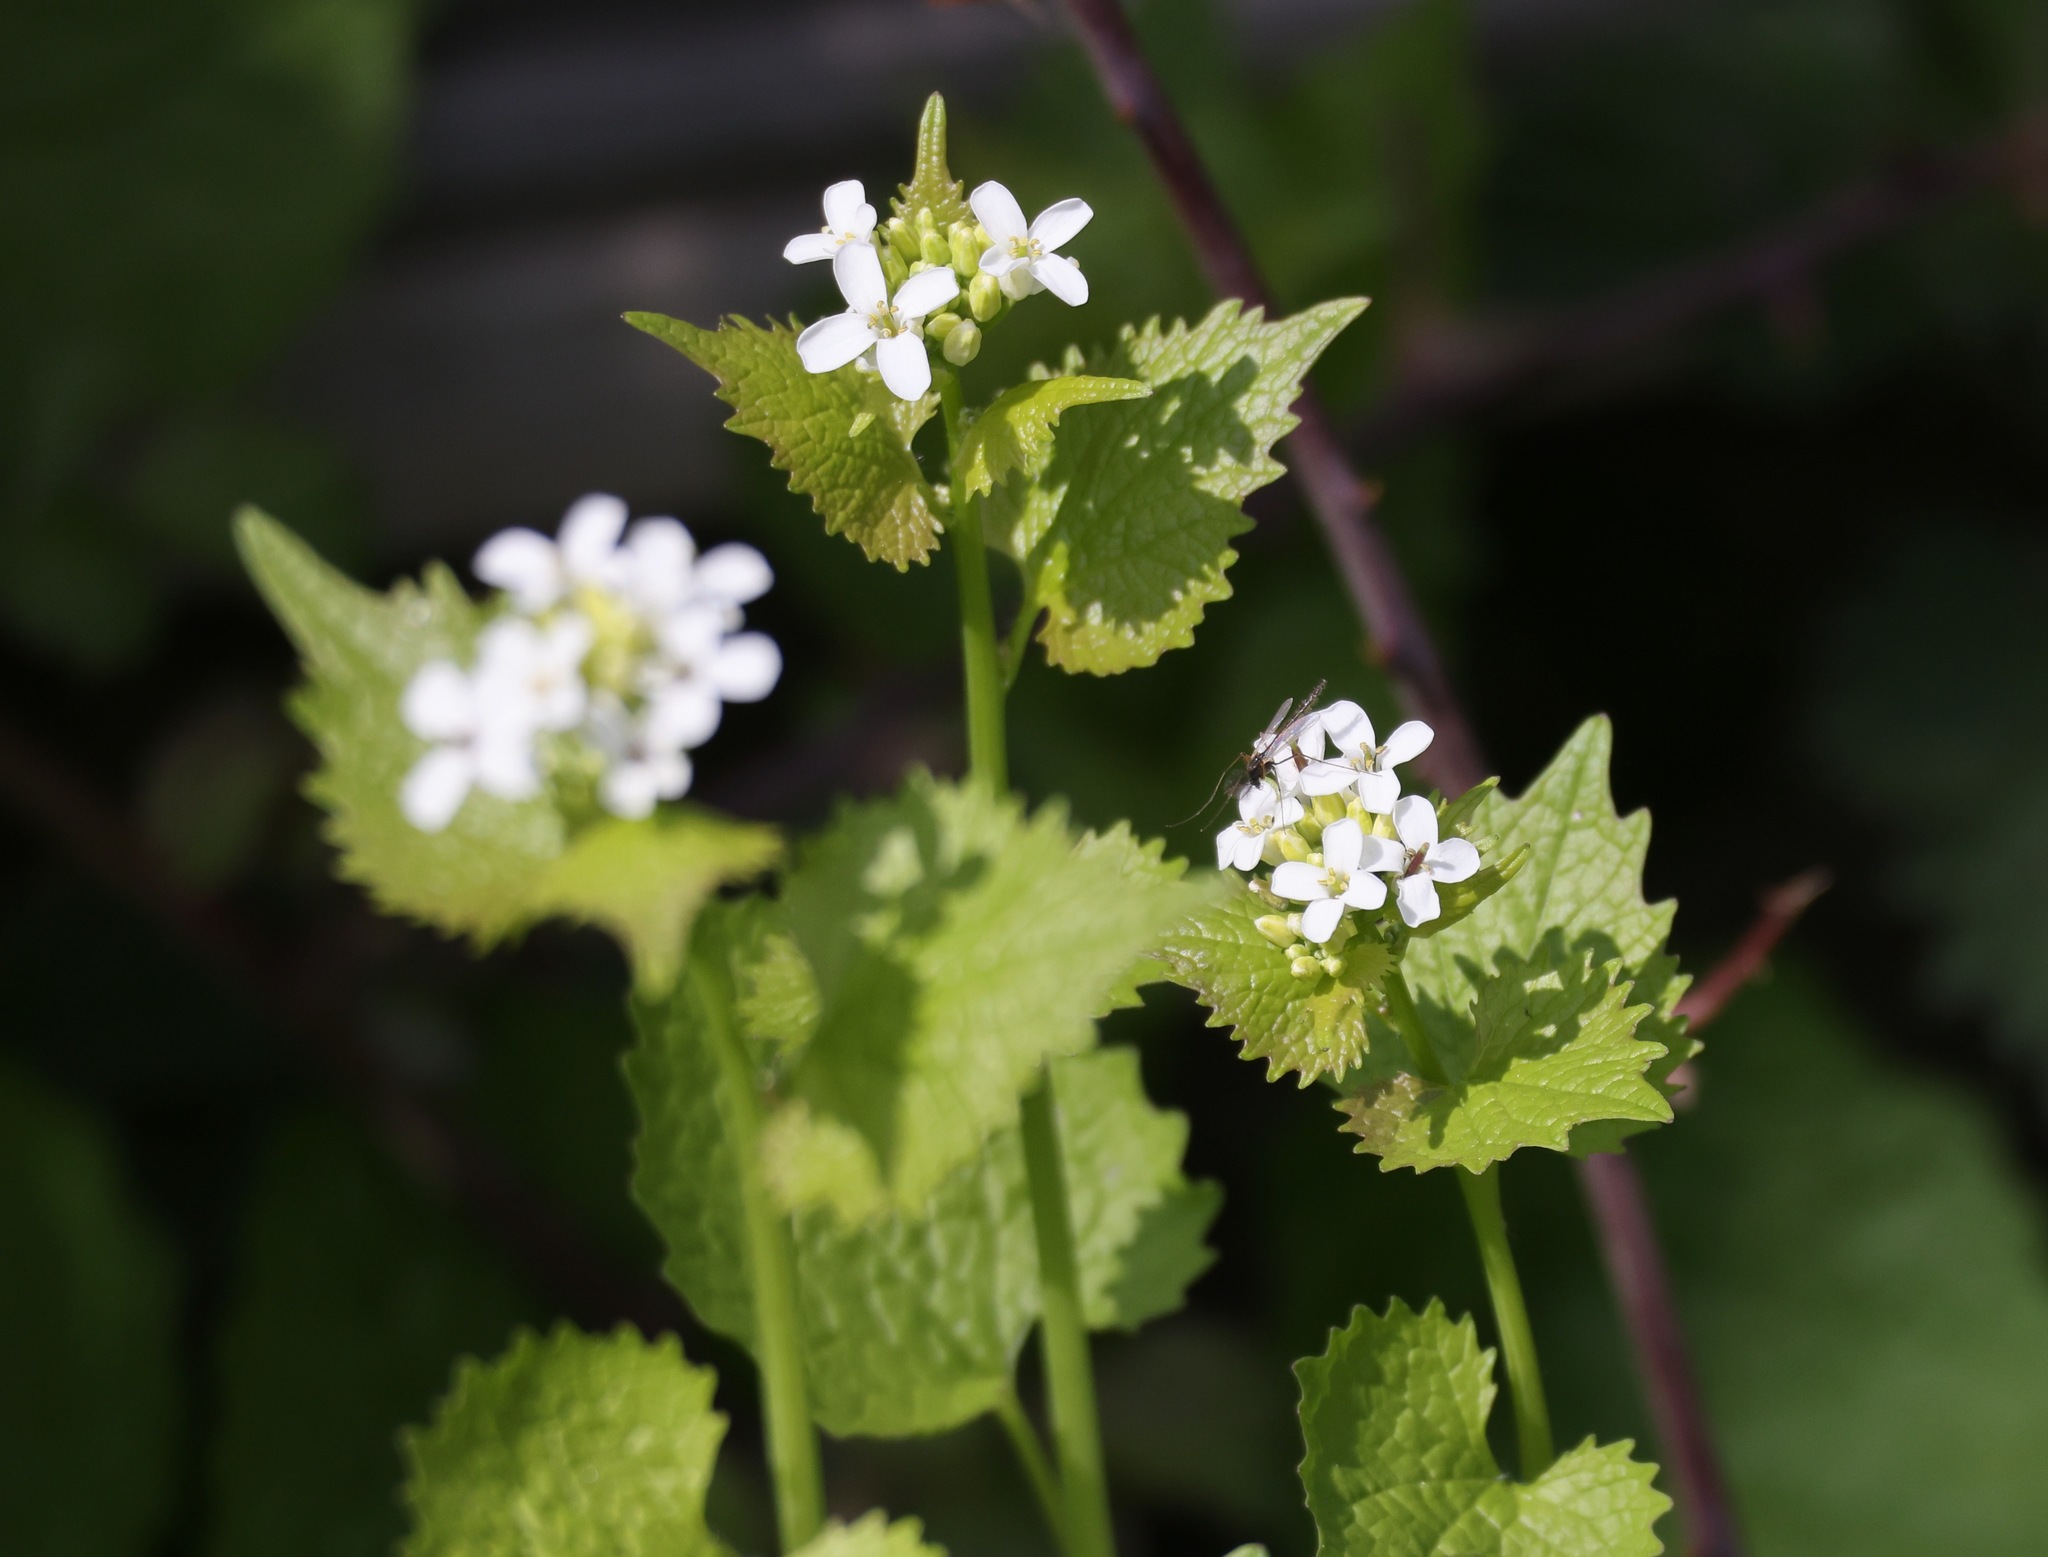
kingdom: Plantae
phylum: Tracheophyta
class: Magnoliopsida
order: Brassicales
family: Brassicaceae
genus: Alliaria
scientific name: Alliaria petiolata
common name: Garlic mustard
